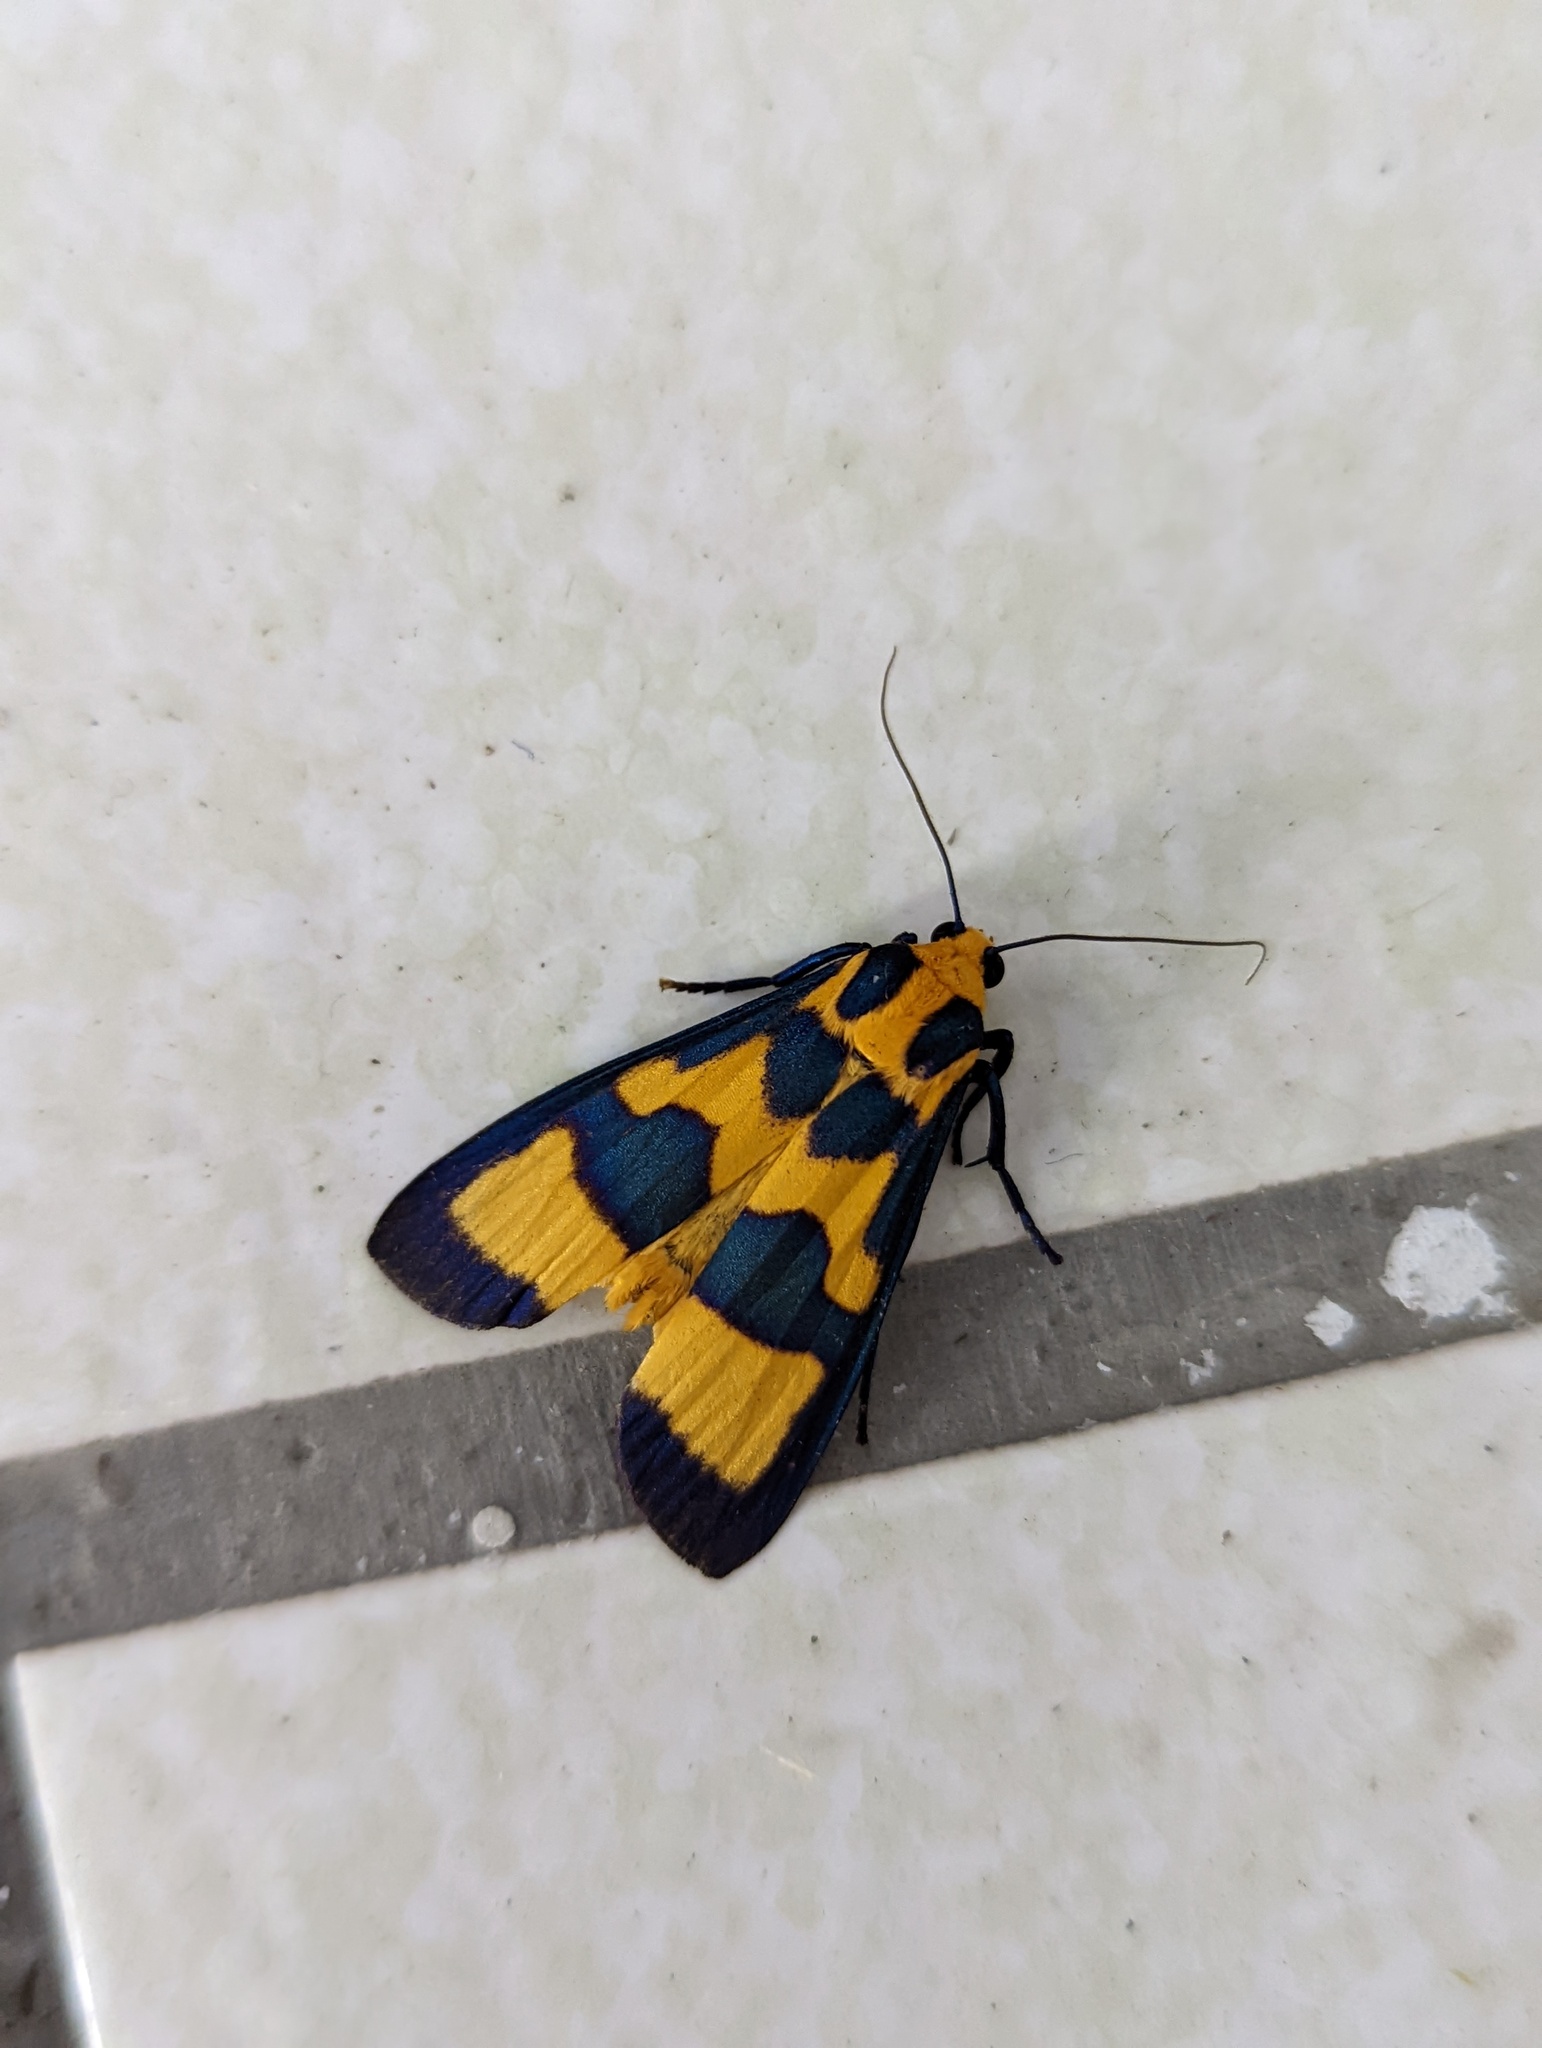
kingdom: Animalia
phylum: Arthropoda
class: Insecta
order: Lepidoptera
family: Erebidae
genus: Chrysaeglia
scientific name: Chrysaeglia magnifica
